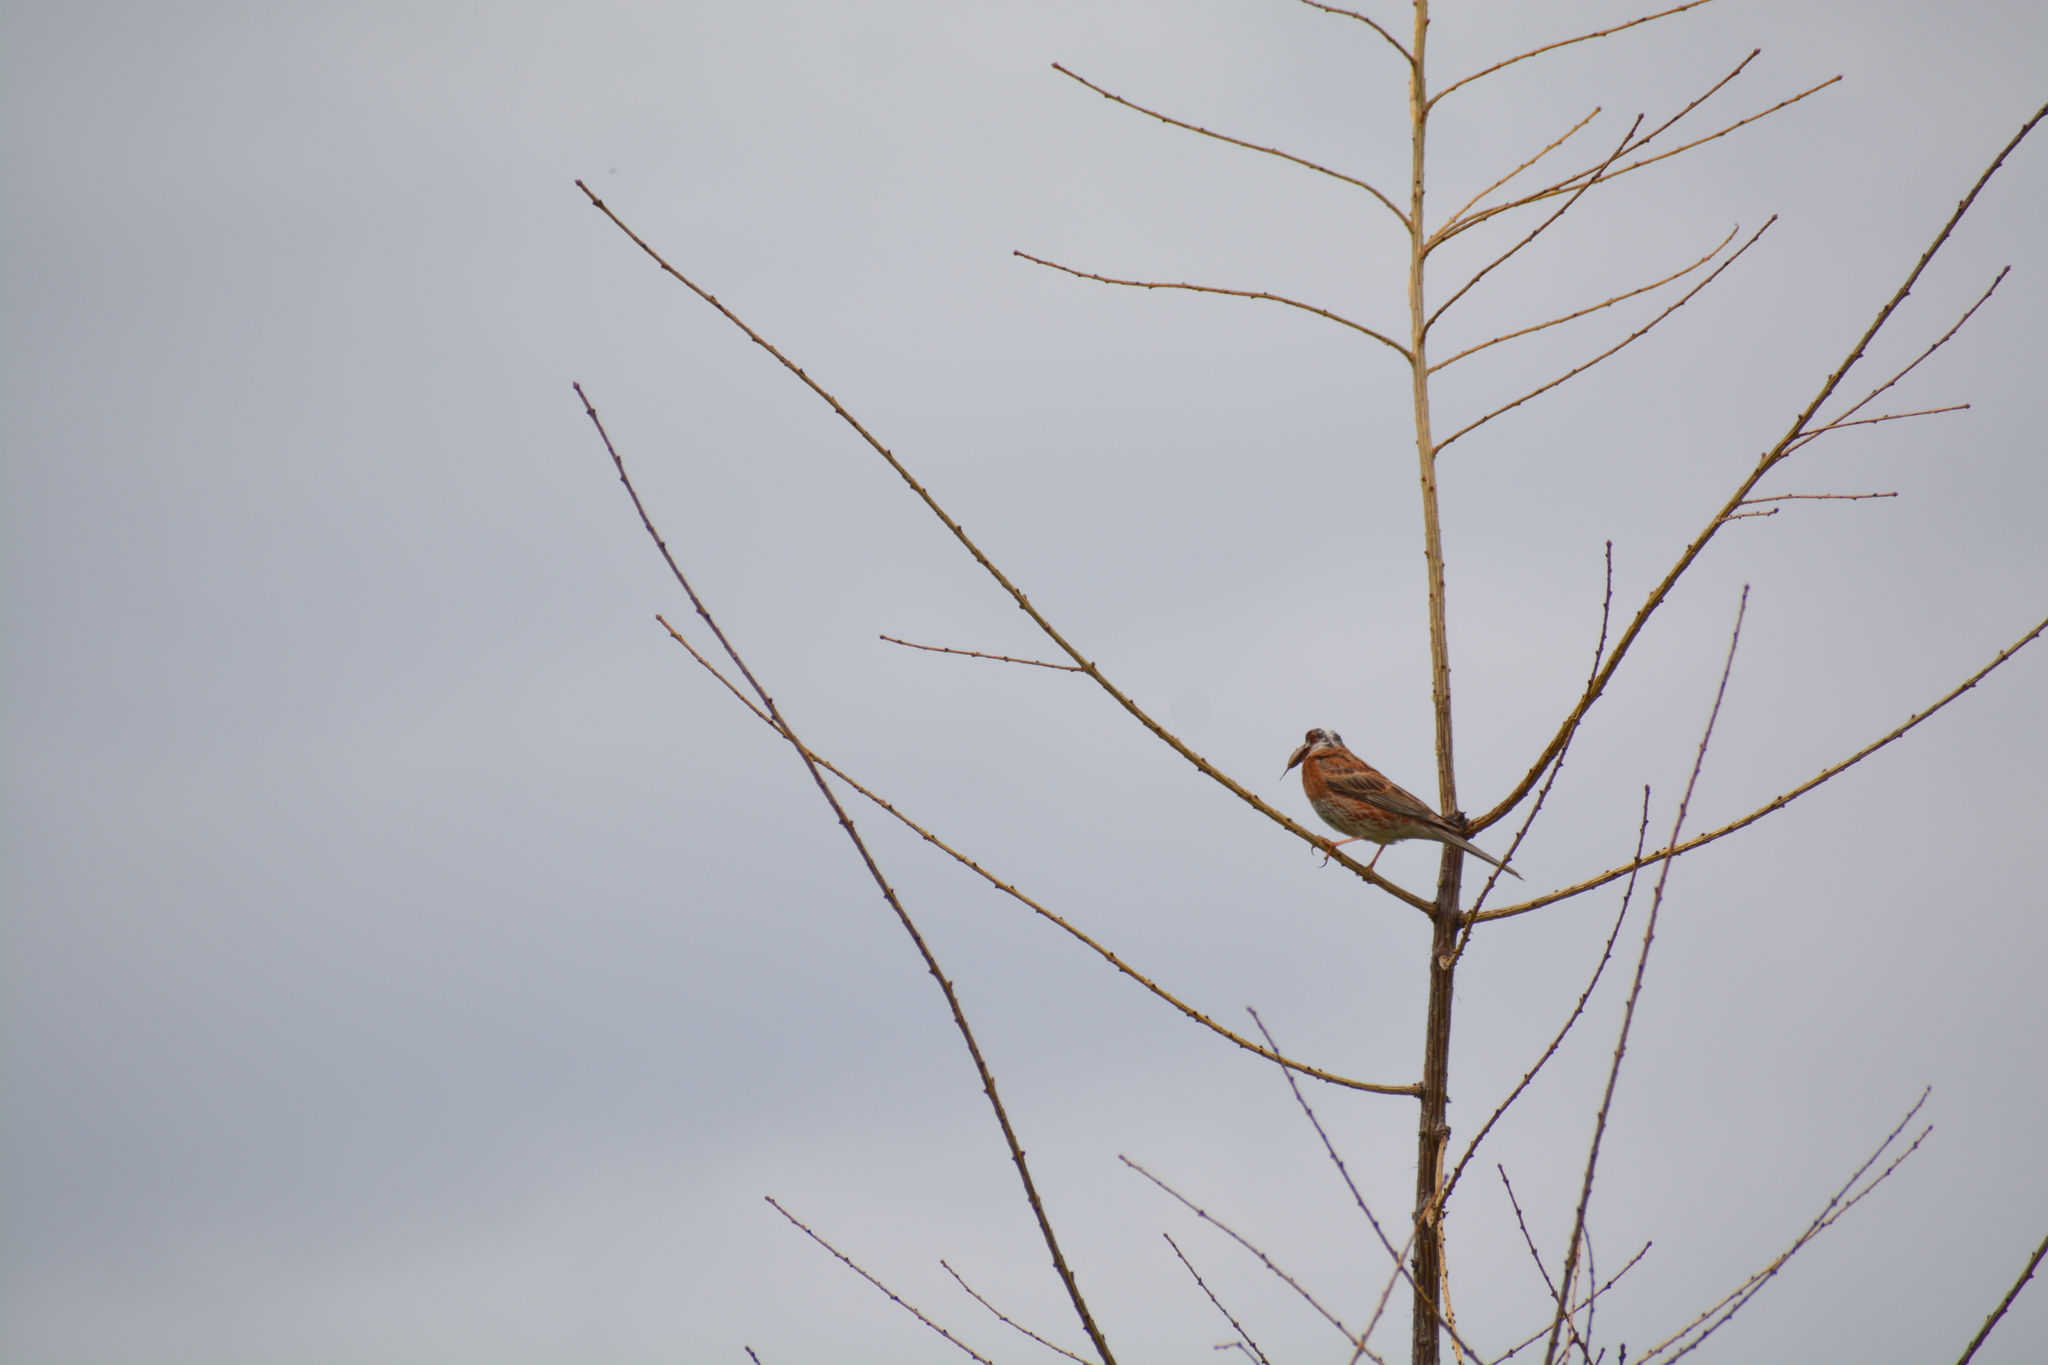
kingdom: Animalia
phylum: Chordata
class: Aves
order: Passeriformes
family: Emberizidae
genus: Emberiza
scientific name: Emberiza leucocephalos
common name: Pine bunting
